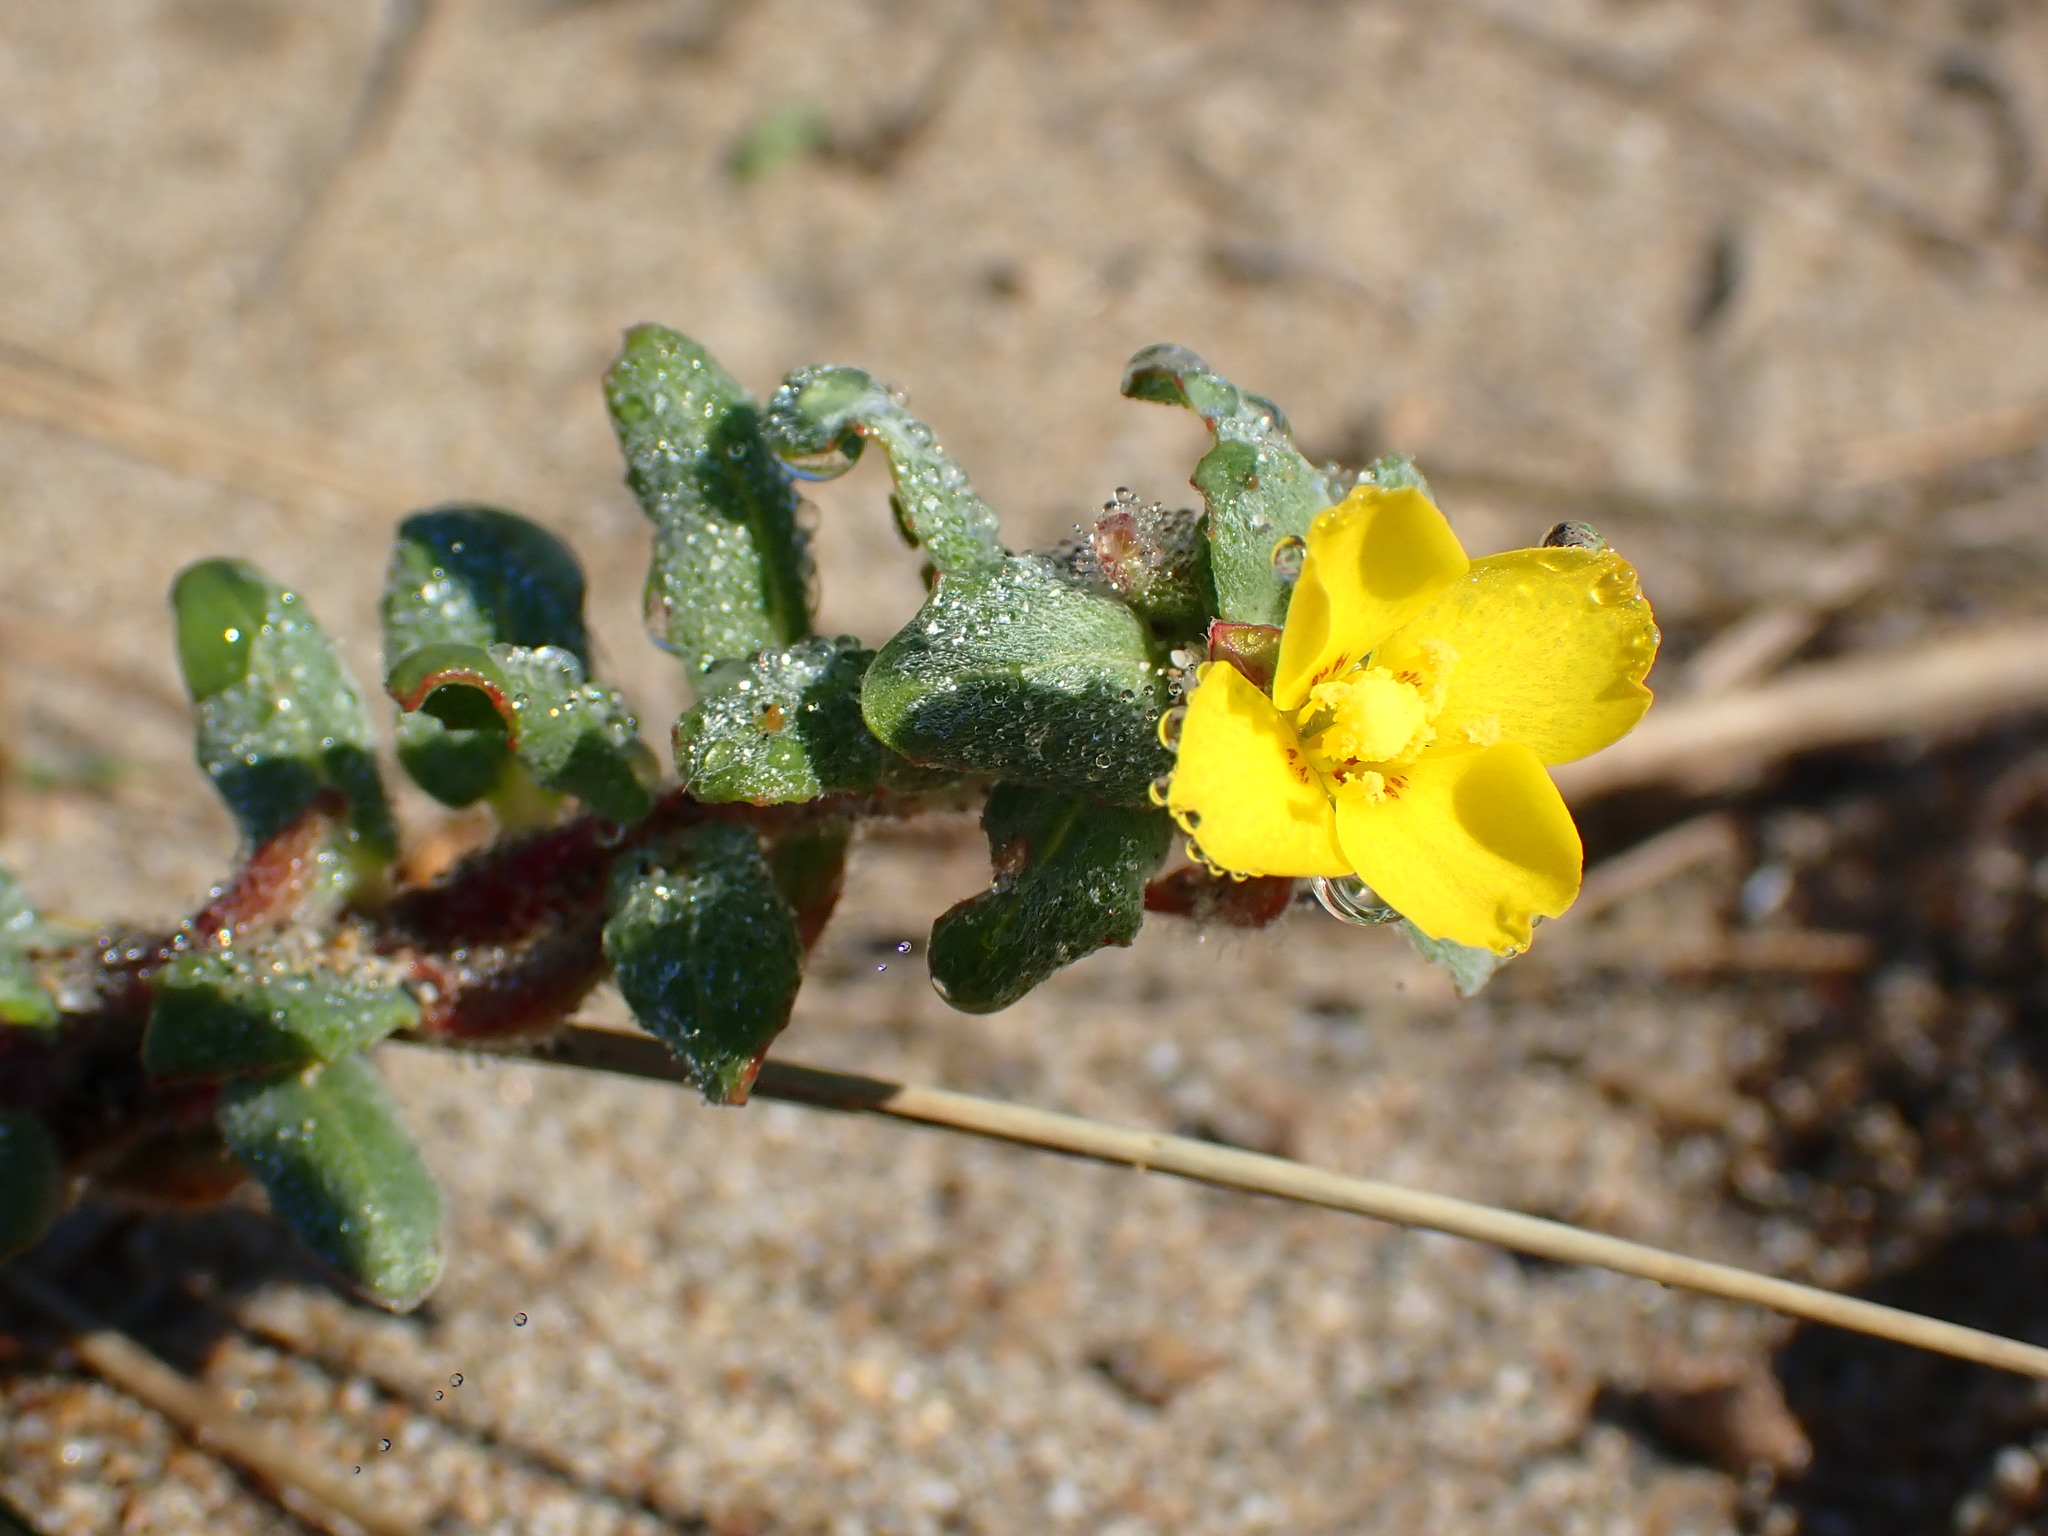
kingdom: Plantae
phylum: Tracheophyta
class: Magnoliopsida
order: Myrtales
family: Onagraceae
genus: Camissoniopsis
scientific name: Camissoniopsis cheiranthifolia
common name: Beach suncup
